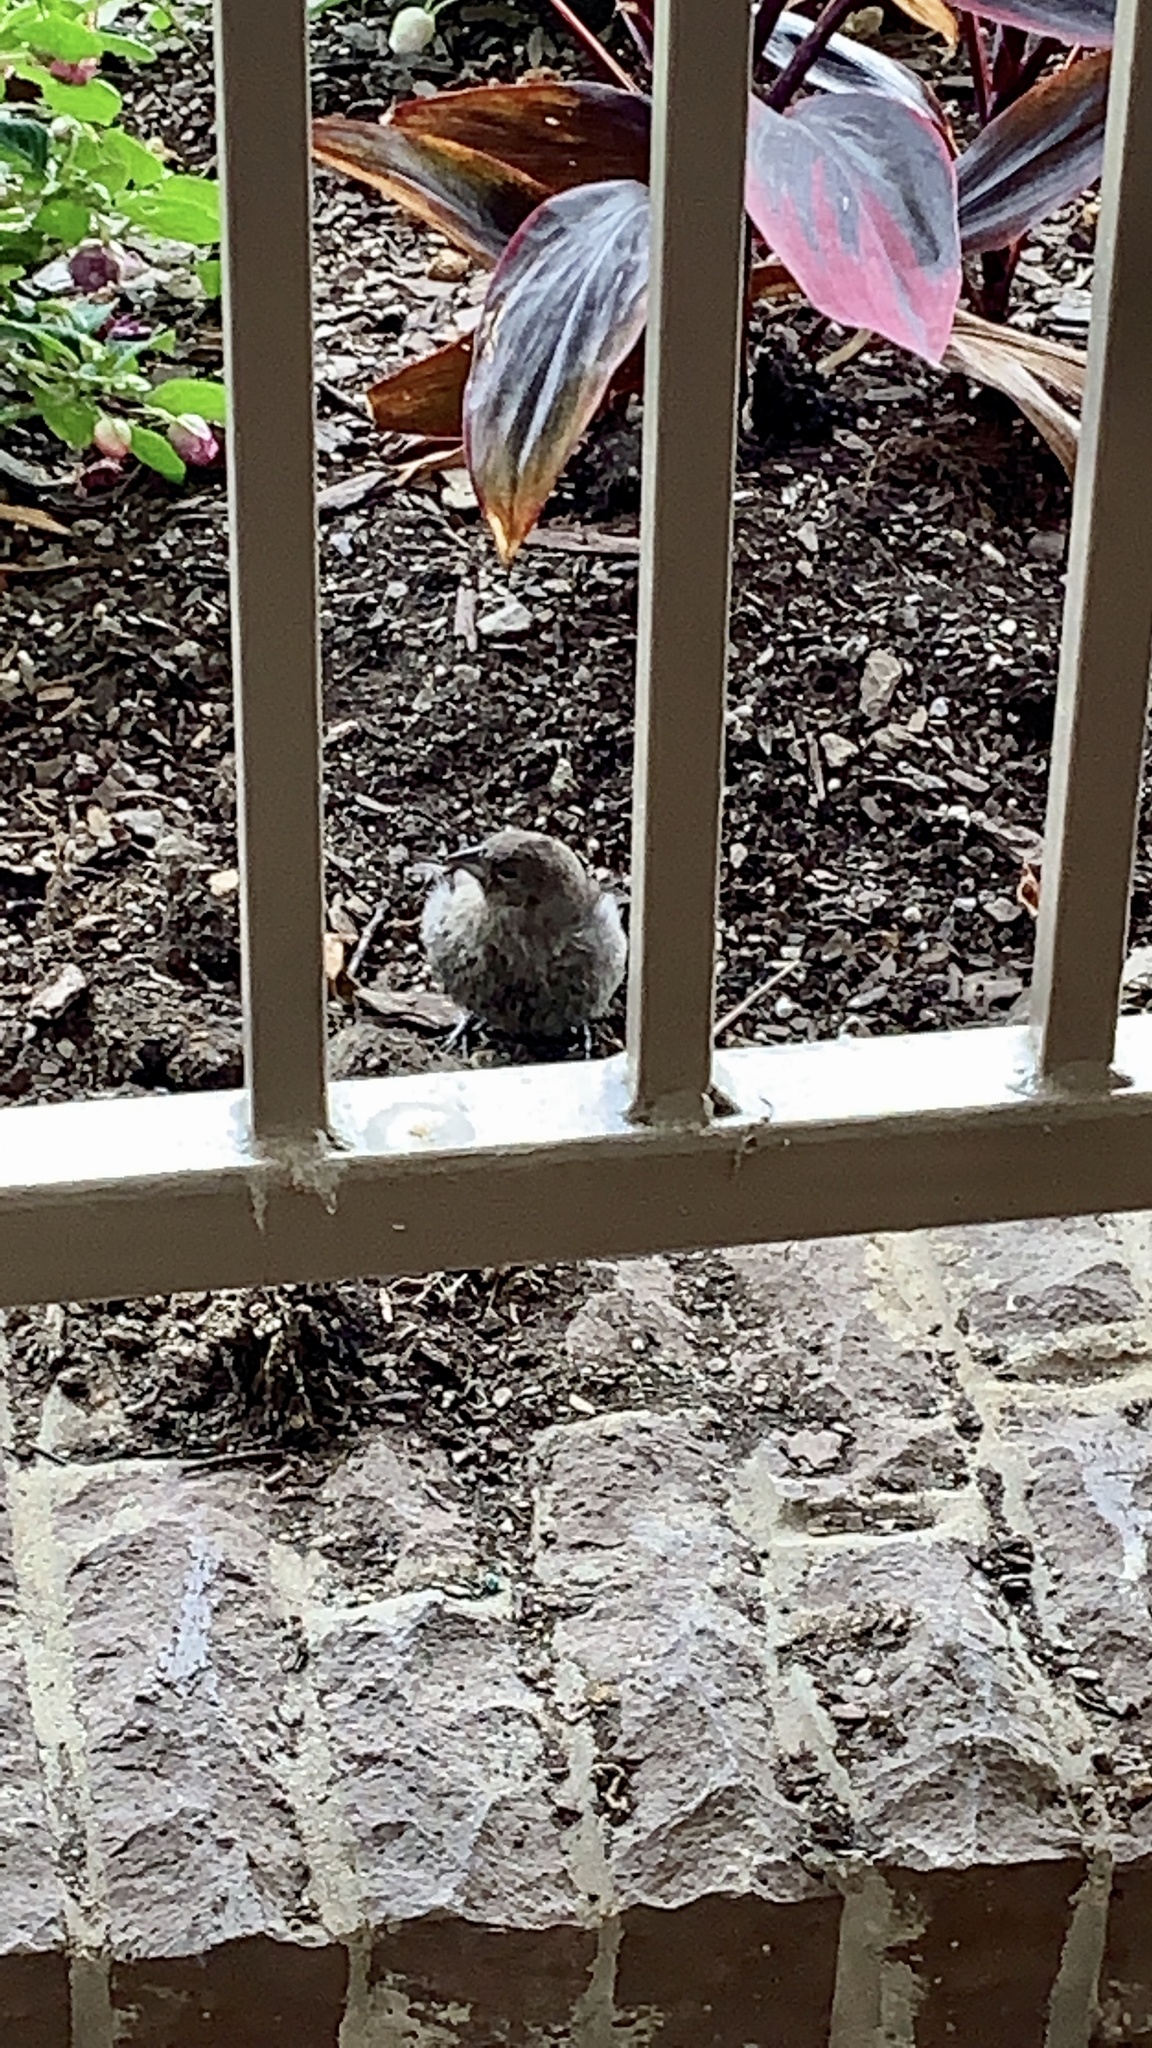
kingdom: Animalia
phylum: Chordata
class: Aves
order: Passeriformes
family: Icteridae
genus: Molothrus
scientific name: Molothrus ater
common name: Brown-headed cowbird
